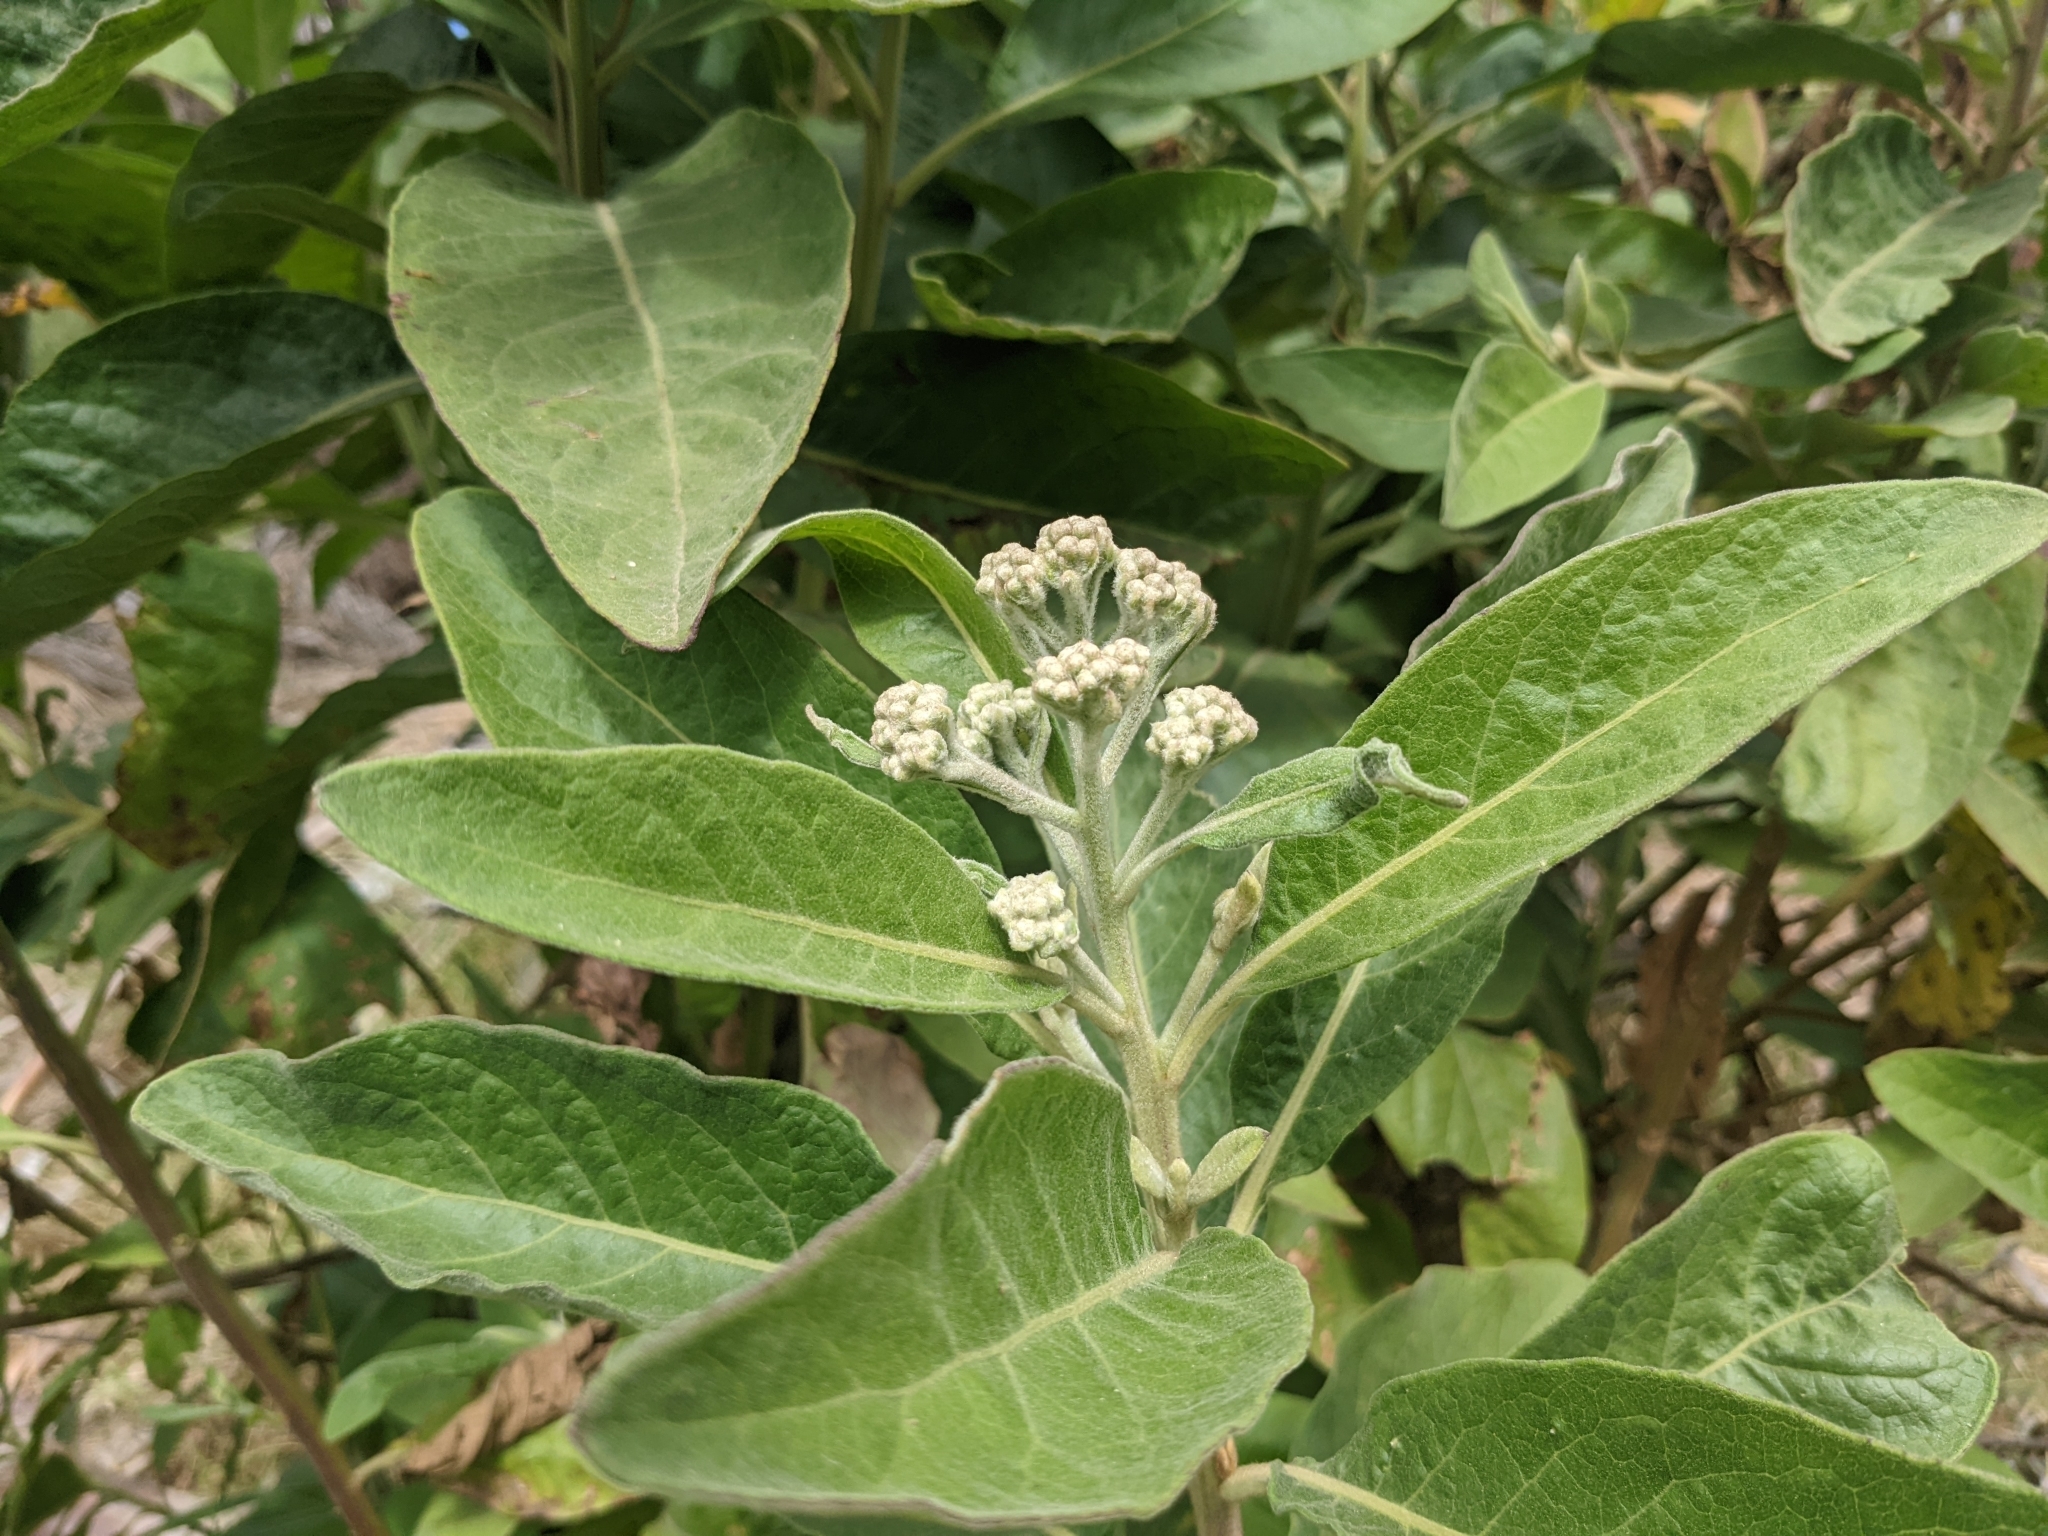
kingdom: Plantae
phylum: Tracheophyta
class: Magnoliopsida
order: Asterales
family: Asteraceae
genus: Pluchea
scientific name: Pluchea carolinensis
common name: Marsh fleabane
